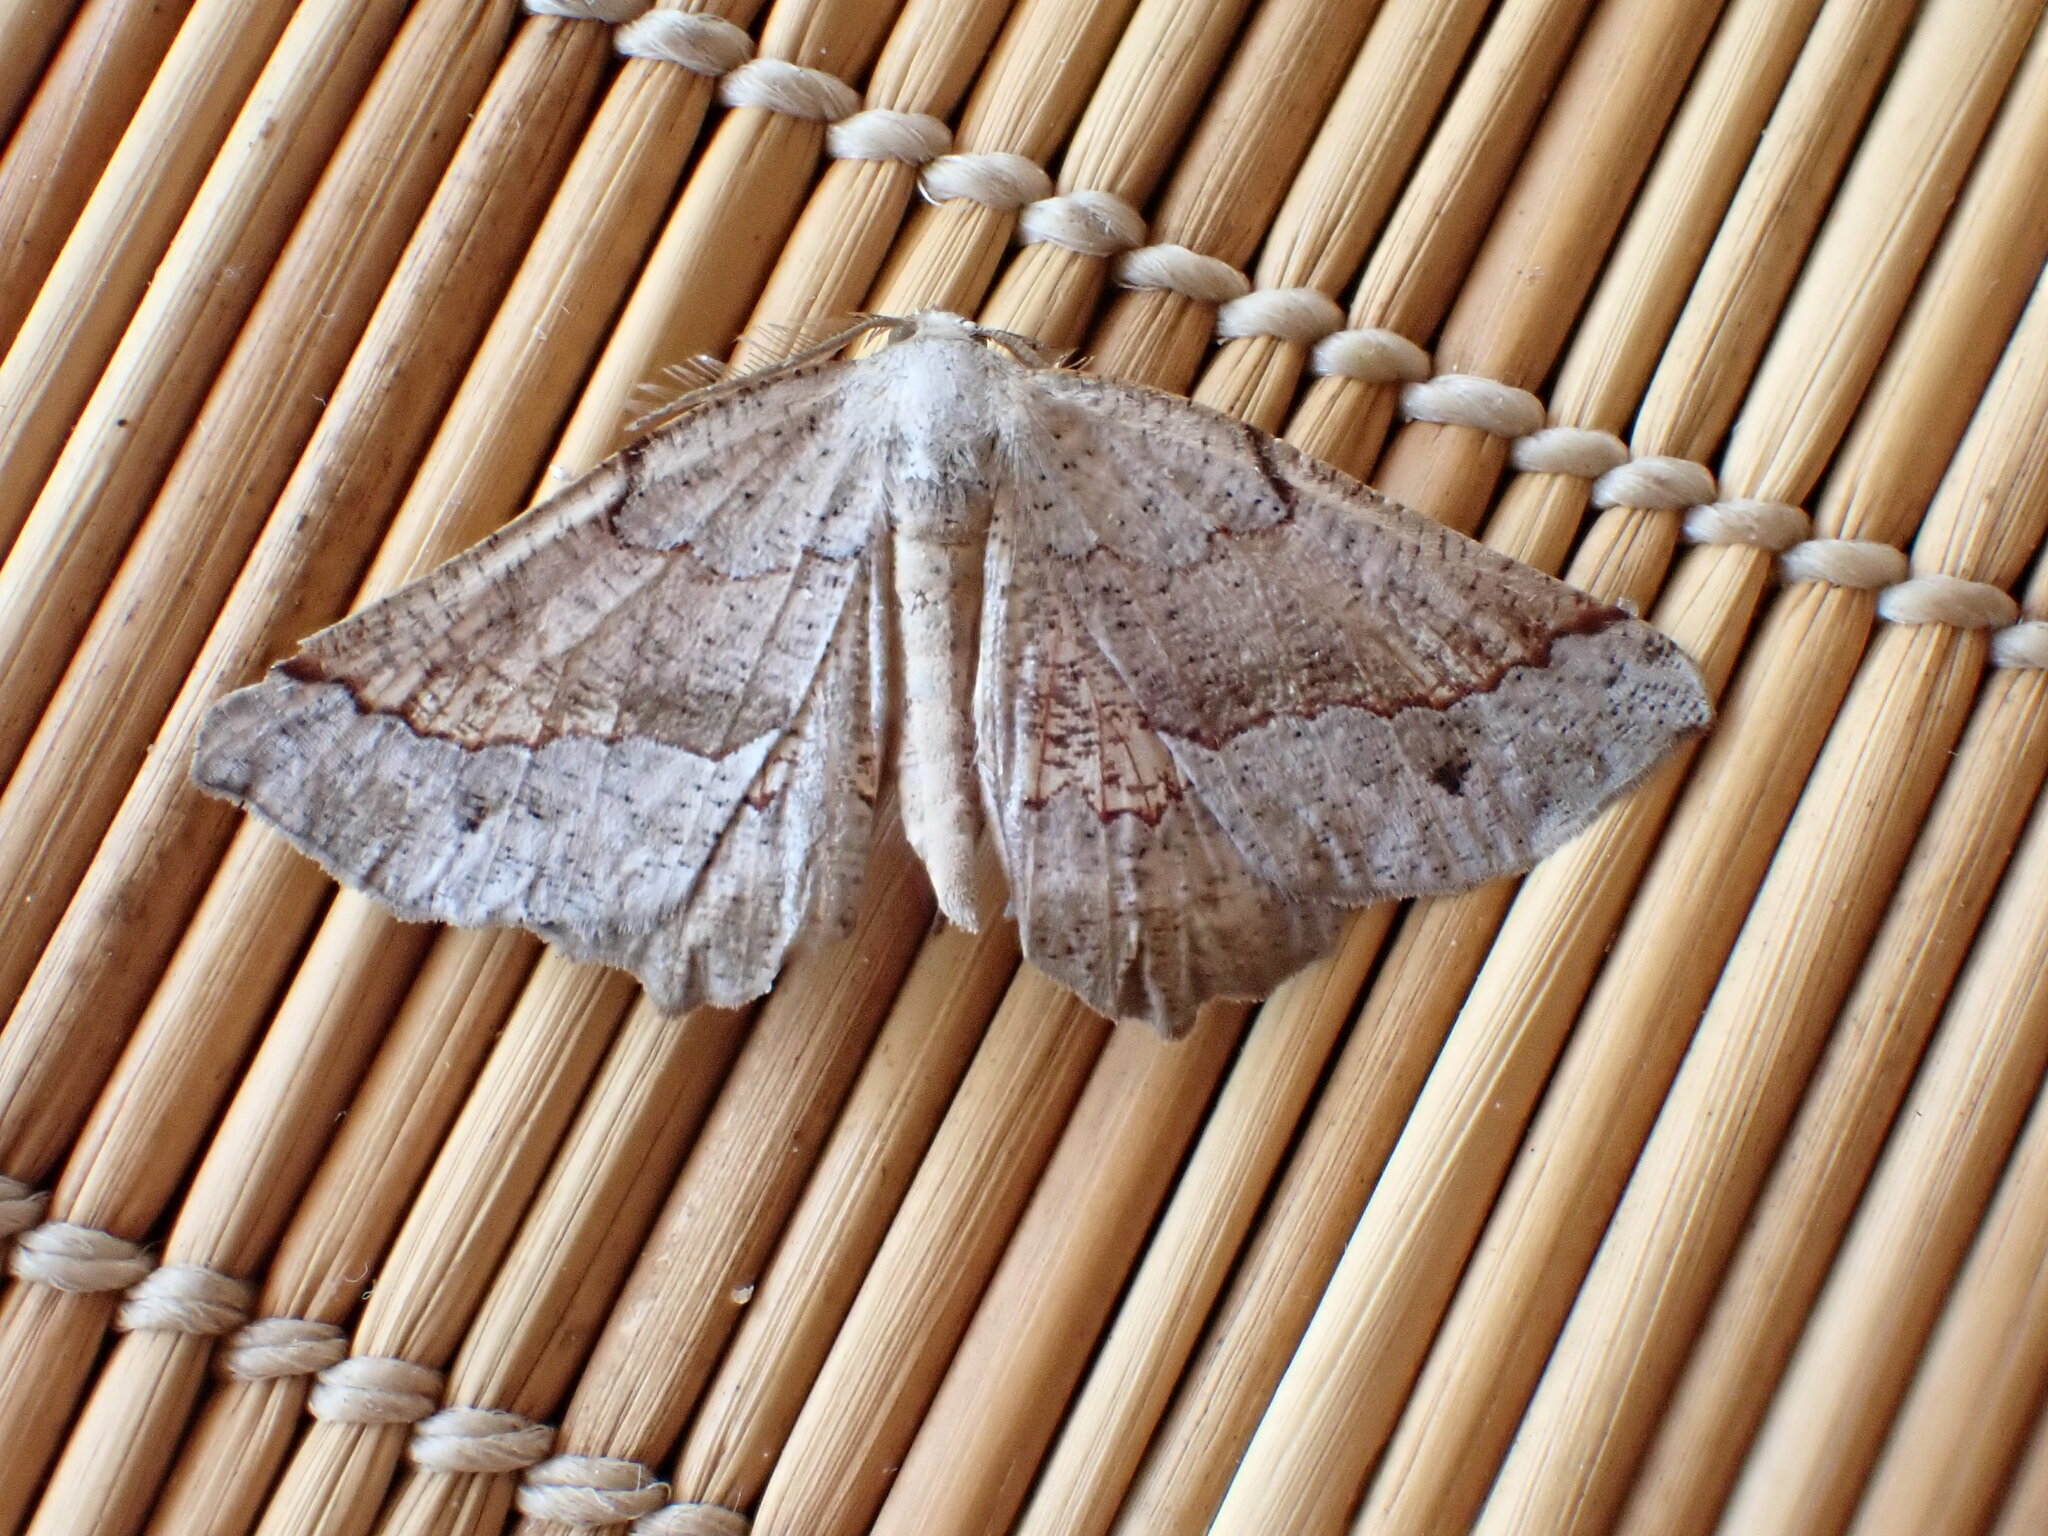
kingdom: Animalia
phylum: Arthropoda
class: Insecta
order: Lepidoptera
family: Geometridae
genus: Drepanogynis
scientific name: Drepanogynis mixtaria
